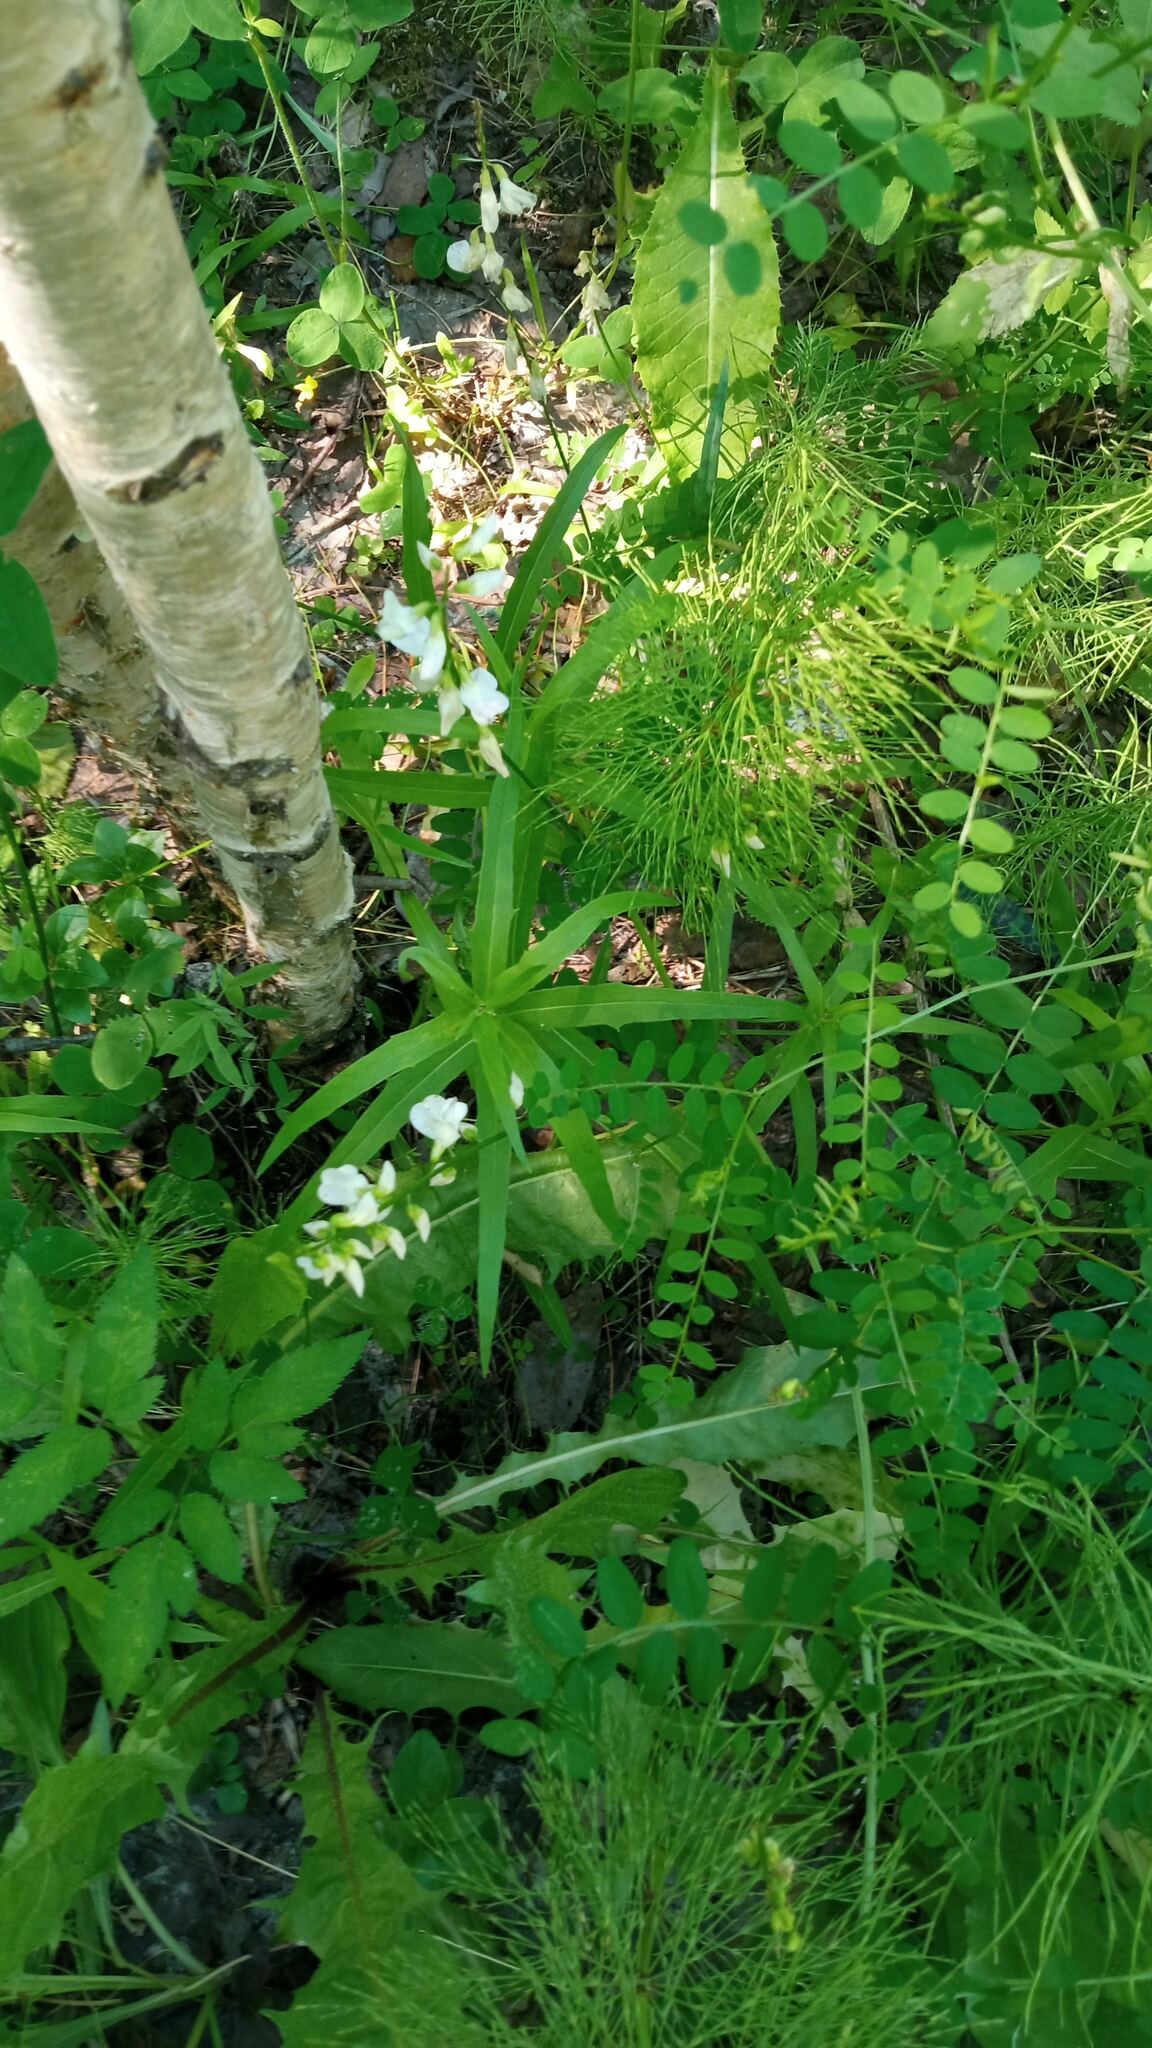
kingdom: Plantae
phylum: Tracheophyta
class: Magnoliopsida
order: Fabales
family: Fabaceae
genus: Vicia
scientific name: Vicia sylvatica
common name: Wood vetch
